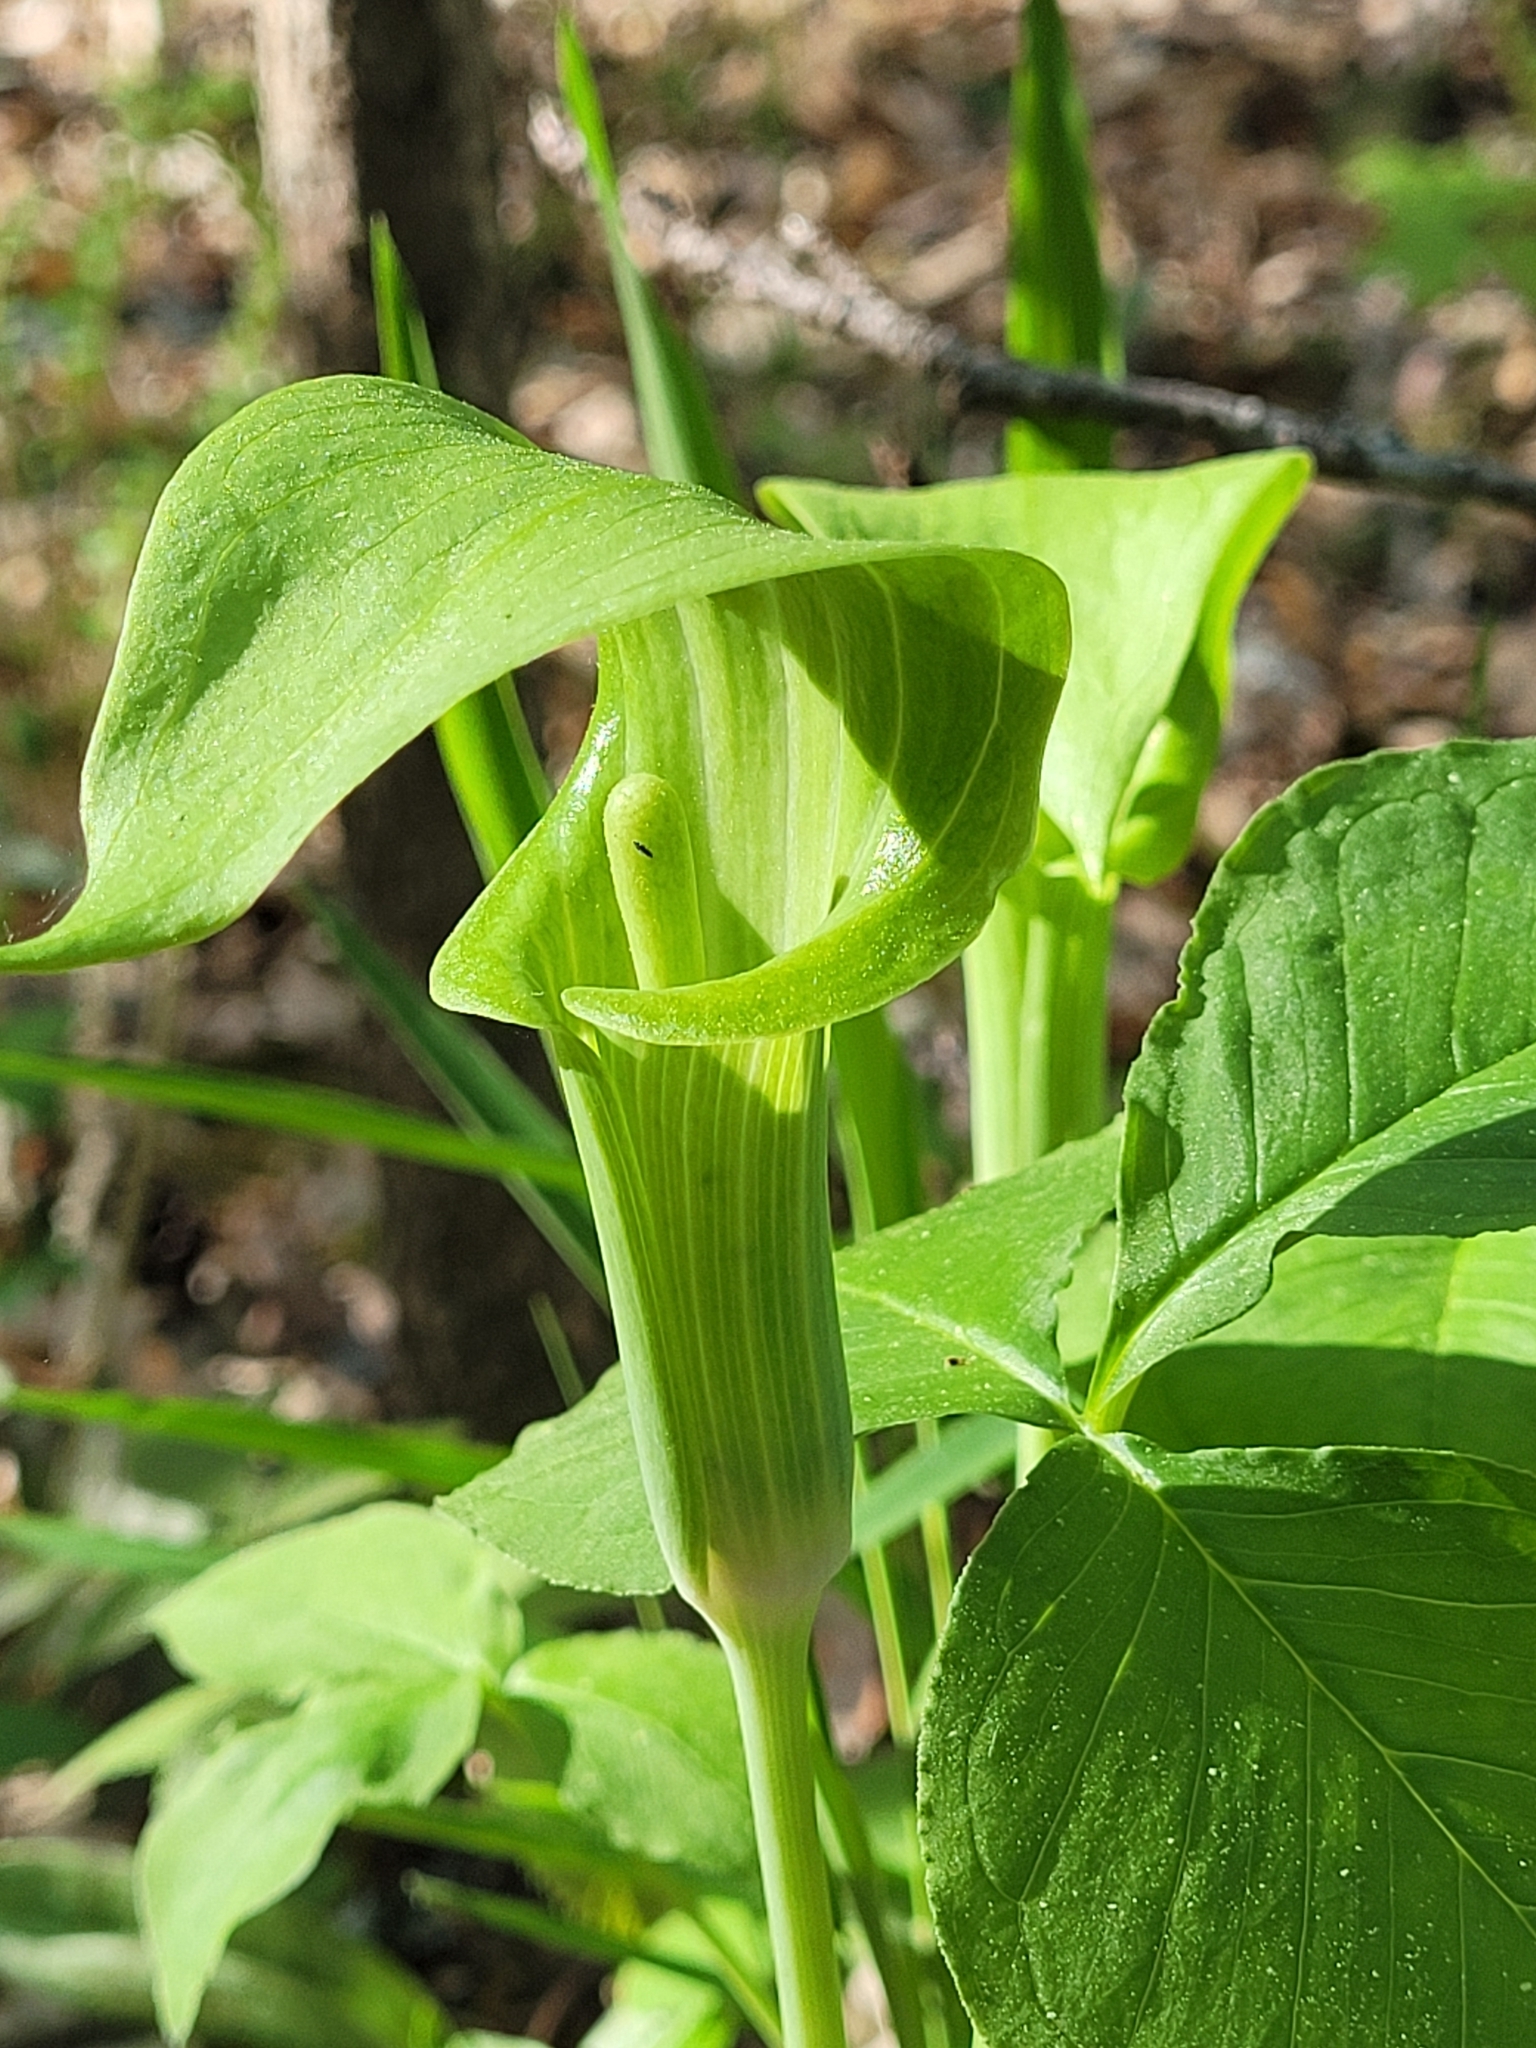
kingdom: Plantae
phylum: Tracheophyta
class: Liliopsida
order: Alismatales
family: Araceae
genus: Arisaema
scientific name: Arisaema triphyllum
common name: Jack-in-the-pulpit
